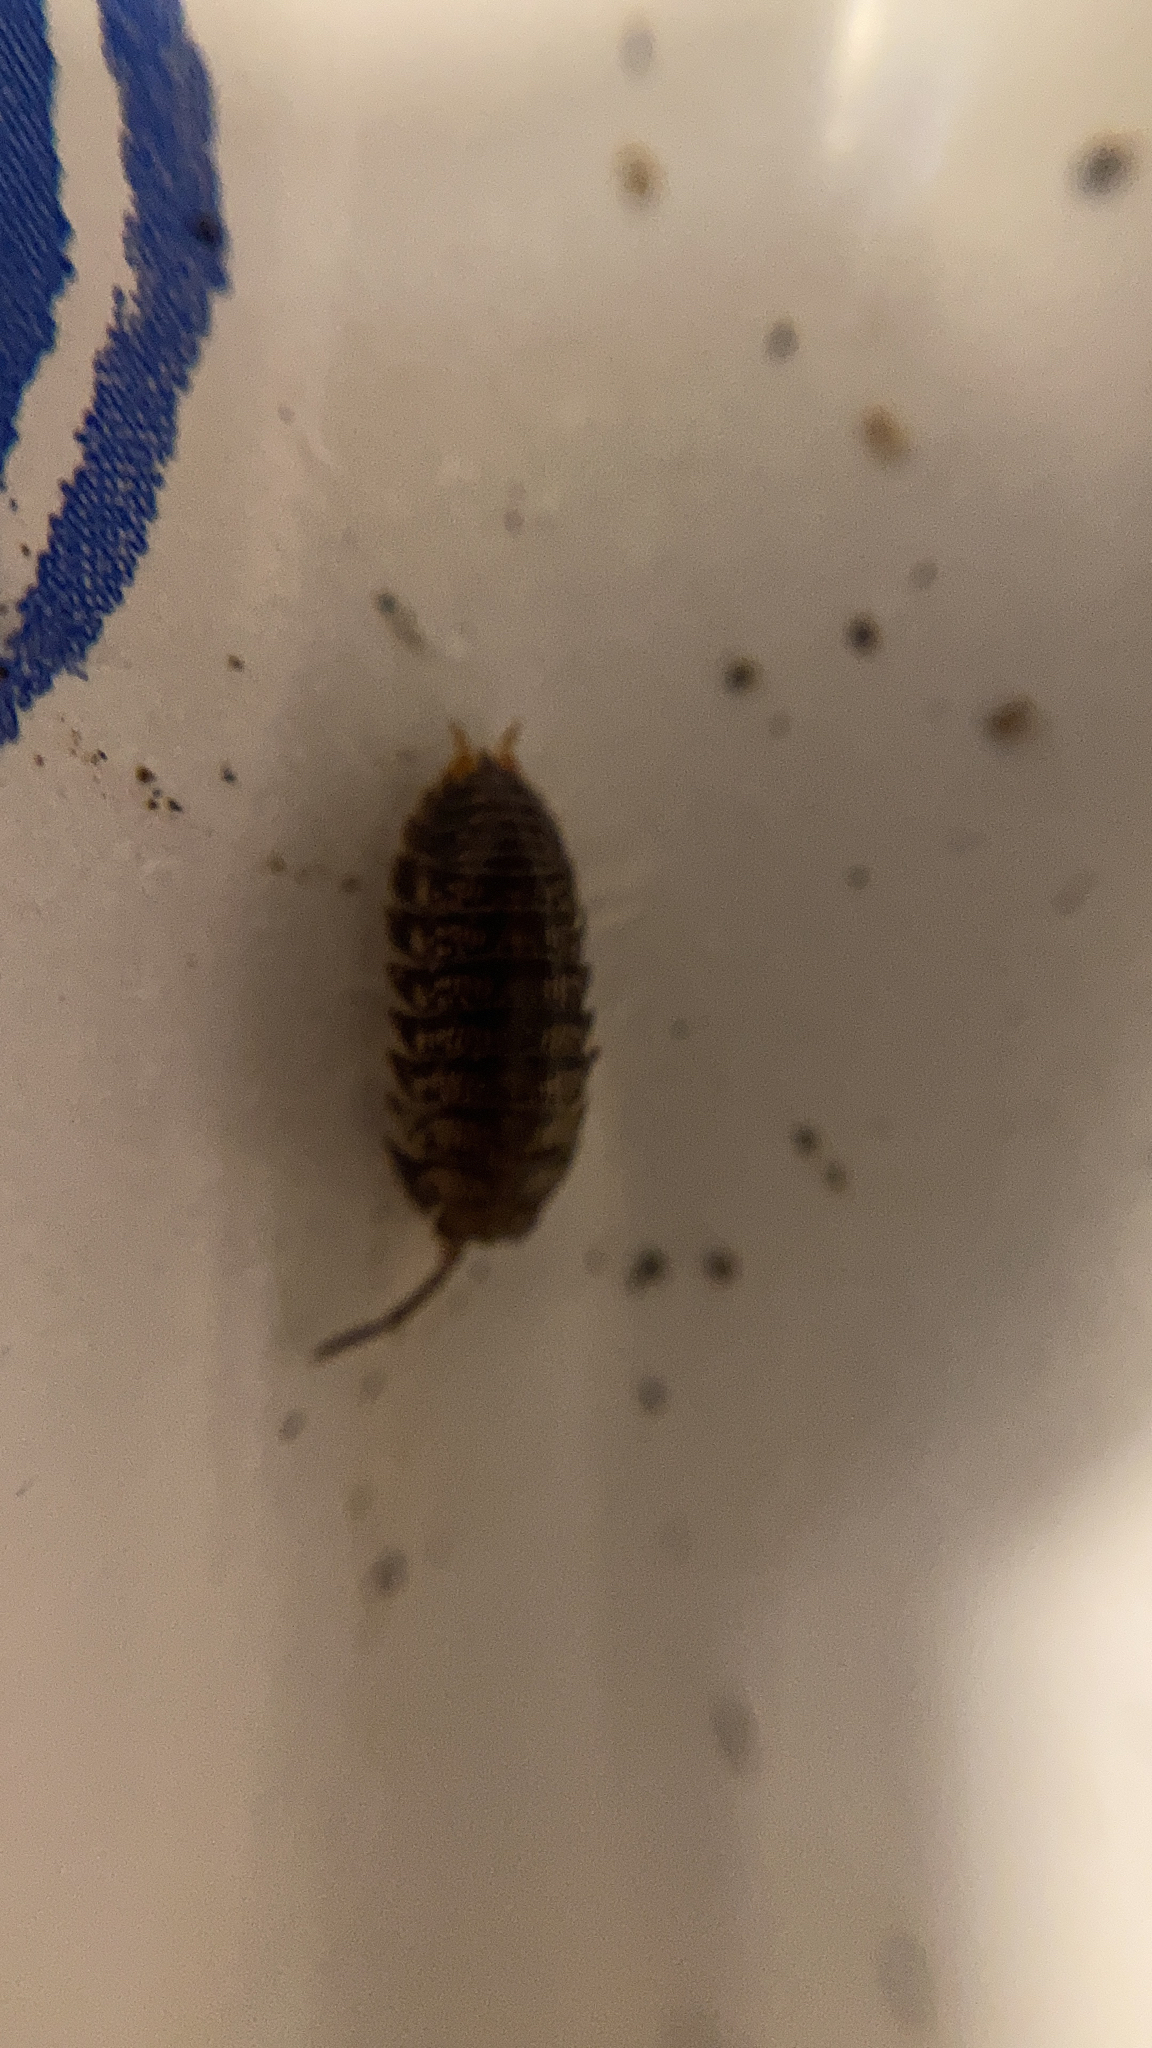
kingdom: Animalia
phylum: Arthropoda
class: Malacostraca
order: Isopoda
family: Cylisticidae
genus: Cylisticus
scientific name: Cylisticus convexus
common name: Curly woodlouse
